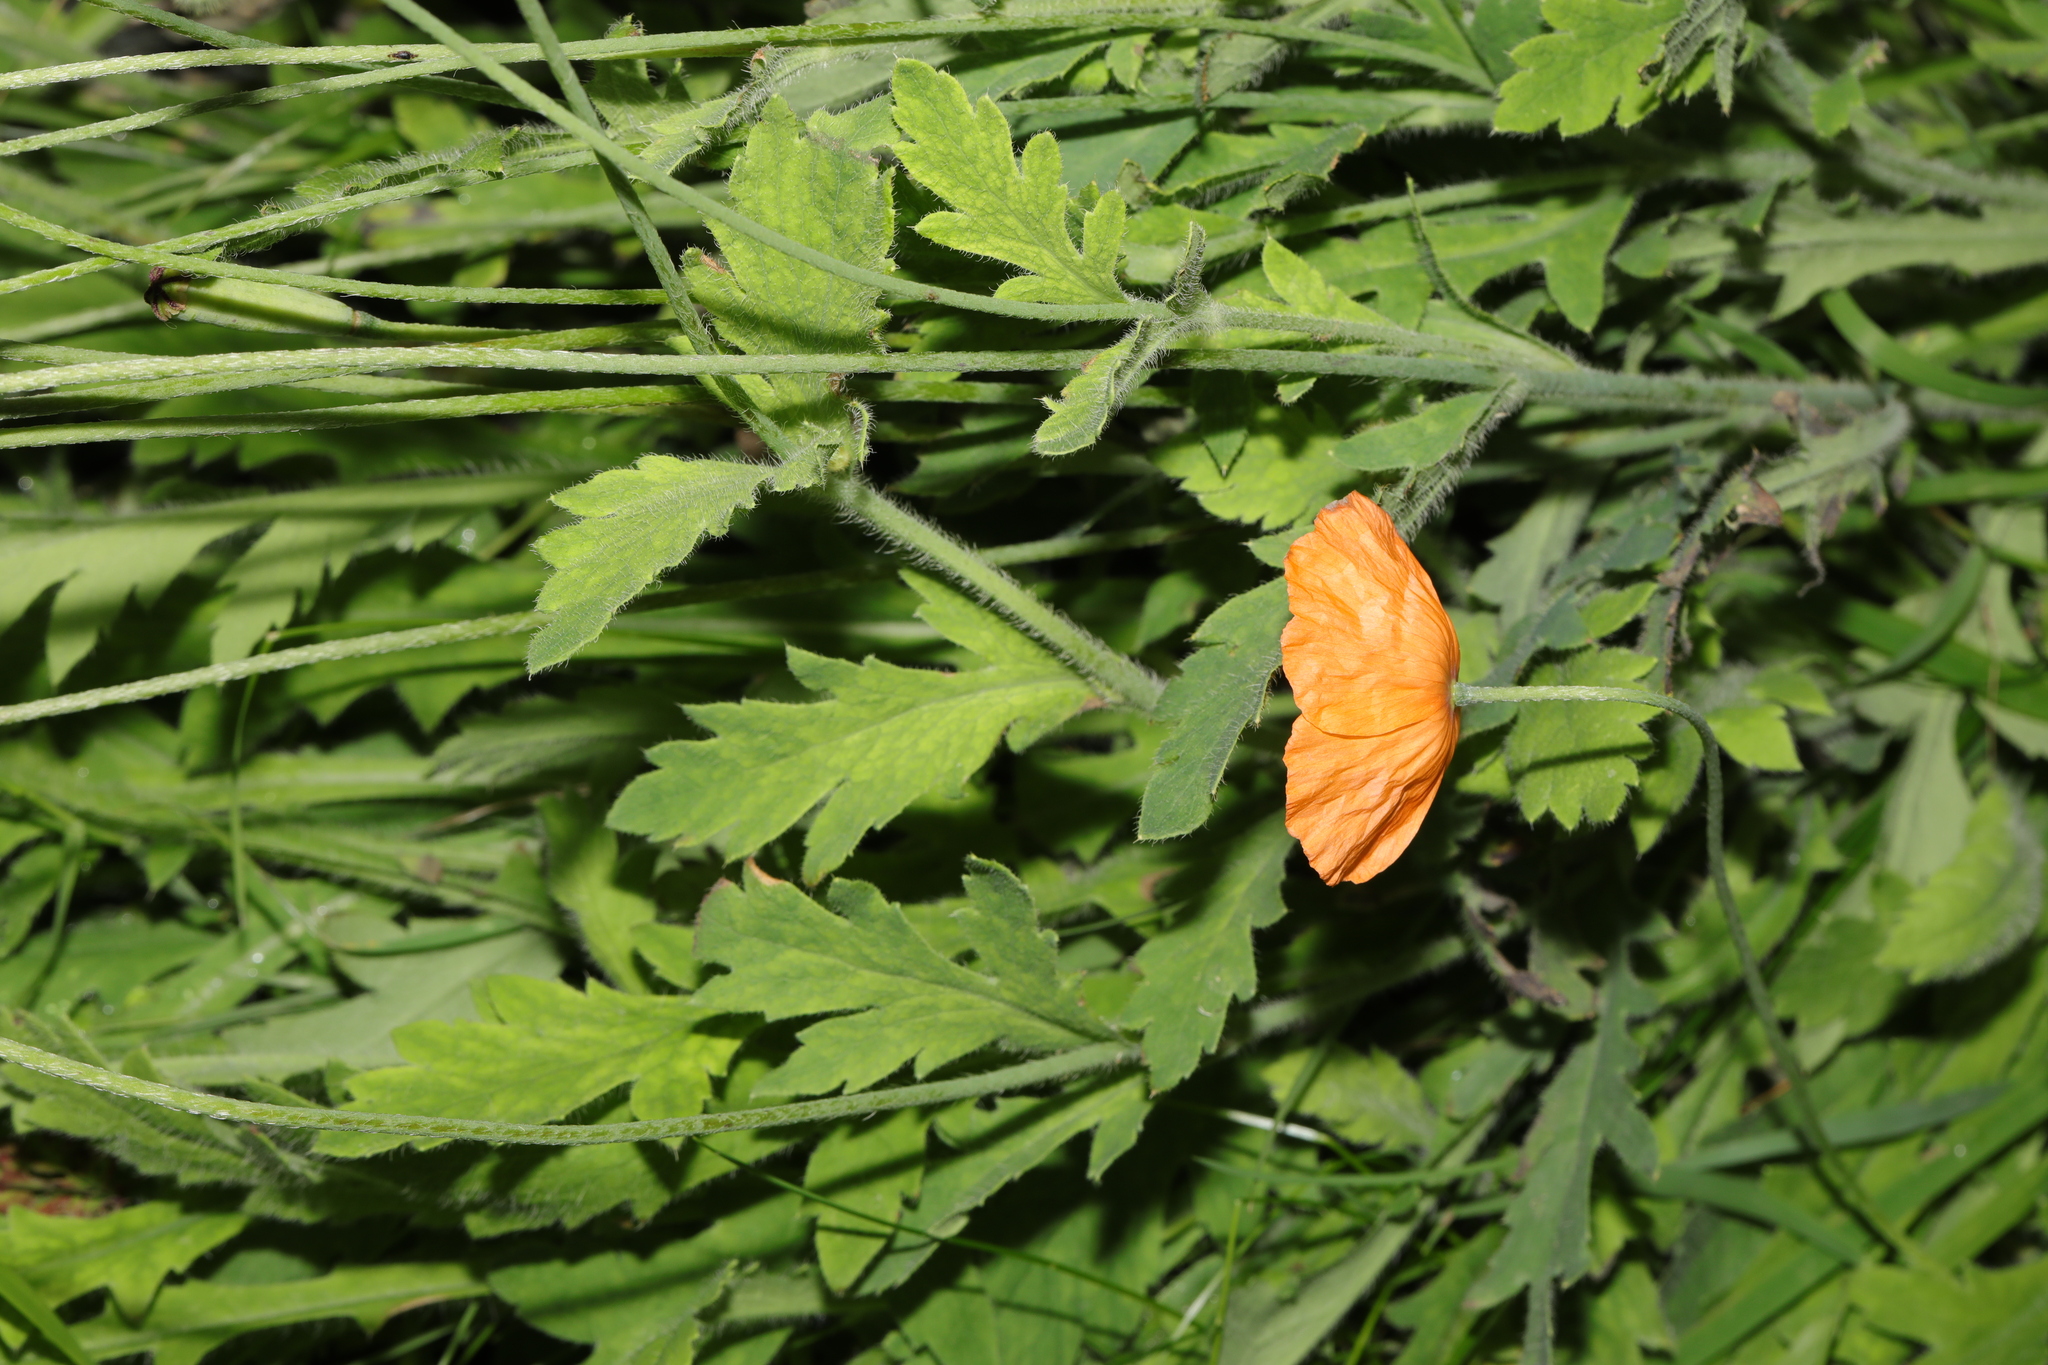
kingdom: Plantae
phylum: Tracheophyta
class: Magnoliopsida
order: Ranunculales
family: Papaveraceae
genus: Papaver
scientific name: Papaver atlanticum
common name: Atlas poppy
